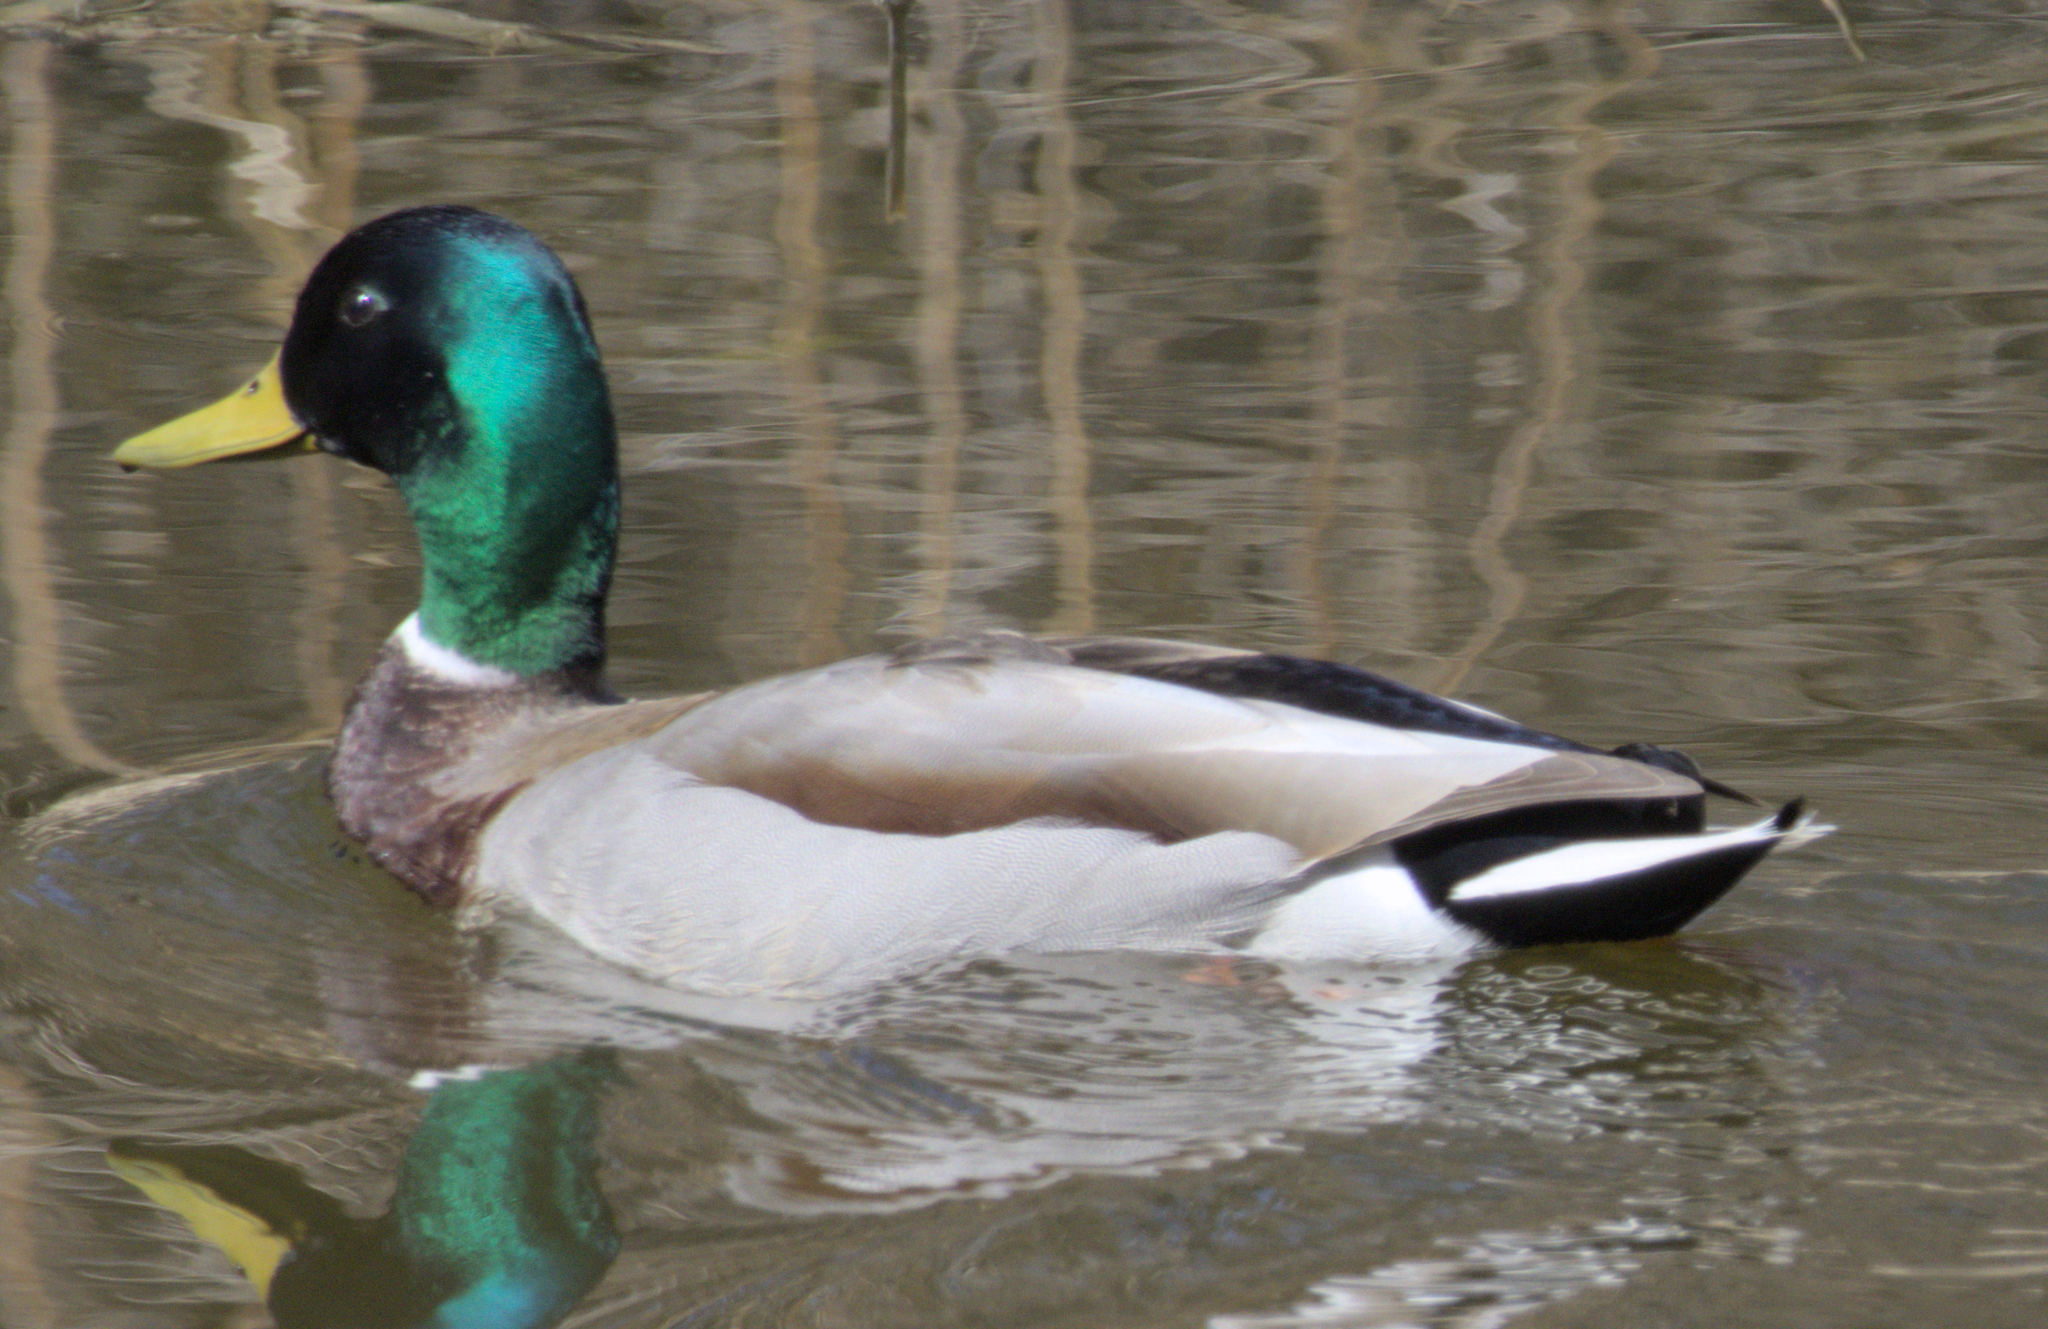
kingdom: Animalia
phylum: Chordata
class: Aves
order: Anseriformes
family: Anatidae
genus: Anas
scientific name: Anas platyrhynchos
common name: Mallard
